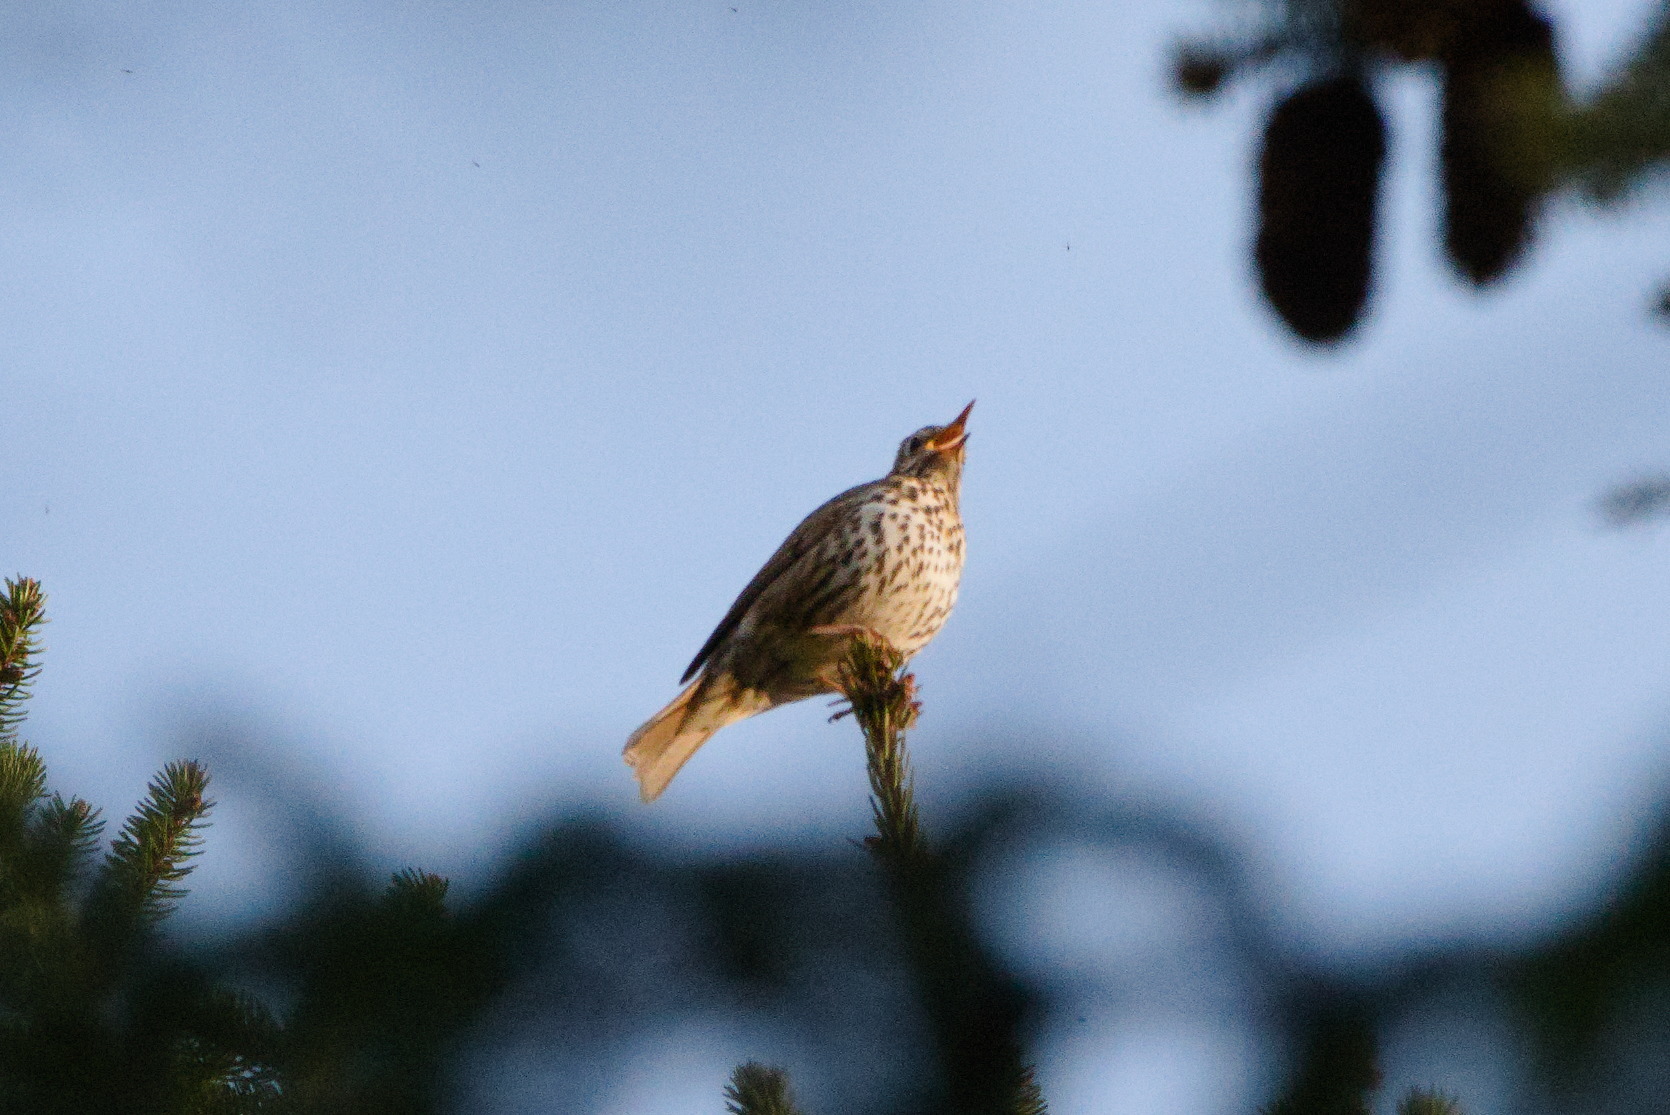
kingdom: Animalia
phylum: Chordata
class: Aves
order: Passeriformes
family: Turdidae
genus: Turdus
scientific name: Turdus philomelos
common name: Song thrush
